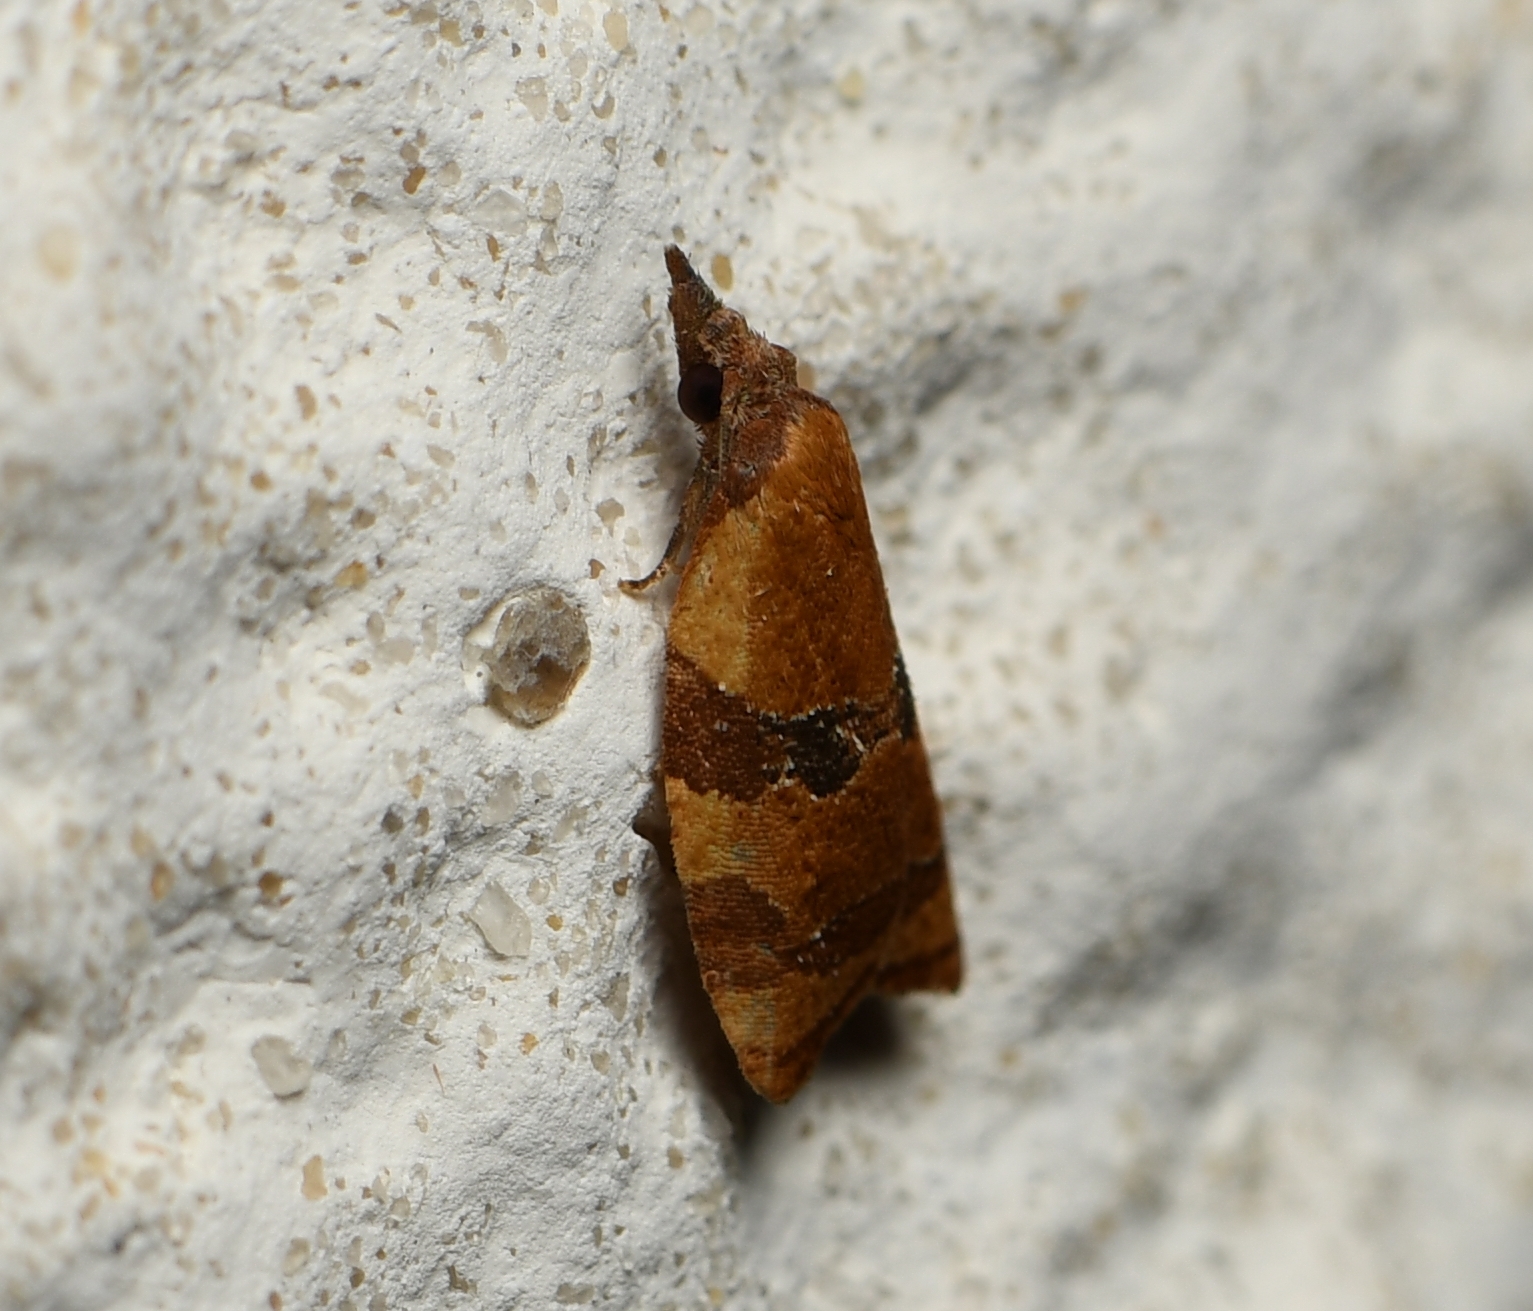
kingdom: Animalia
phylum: Arthropoda
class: Insecta
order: Lepidoptera
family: Tortricidae
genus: Cenopis
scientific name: Cenopis diluticostana
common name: Spring dead-leaf roller moth
